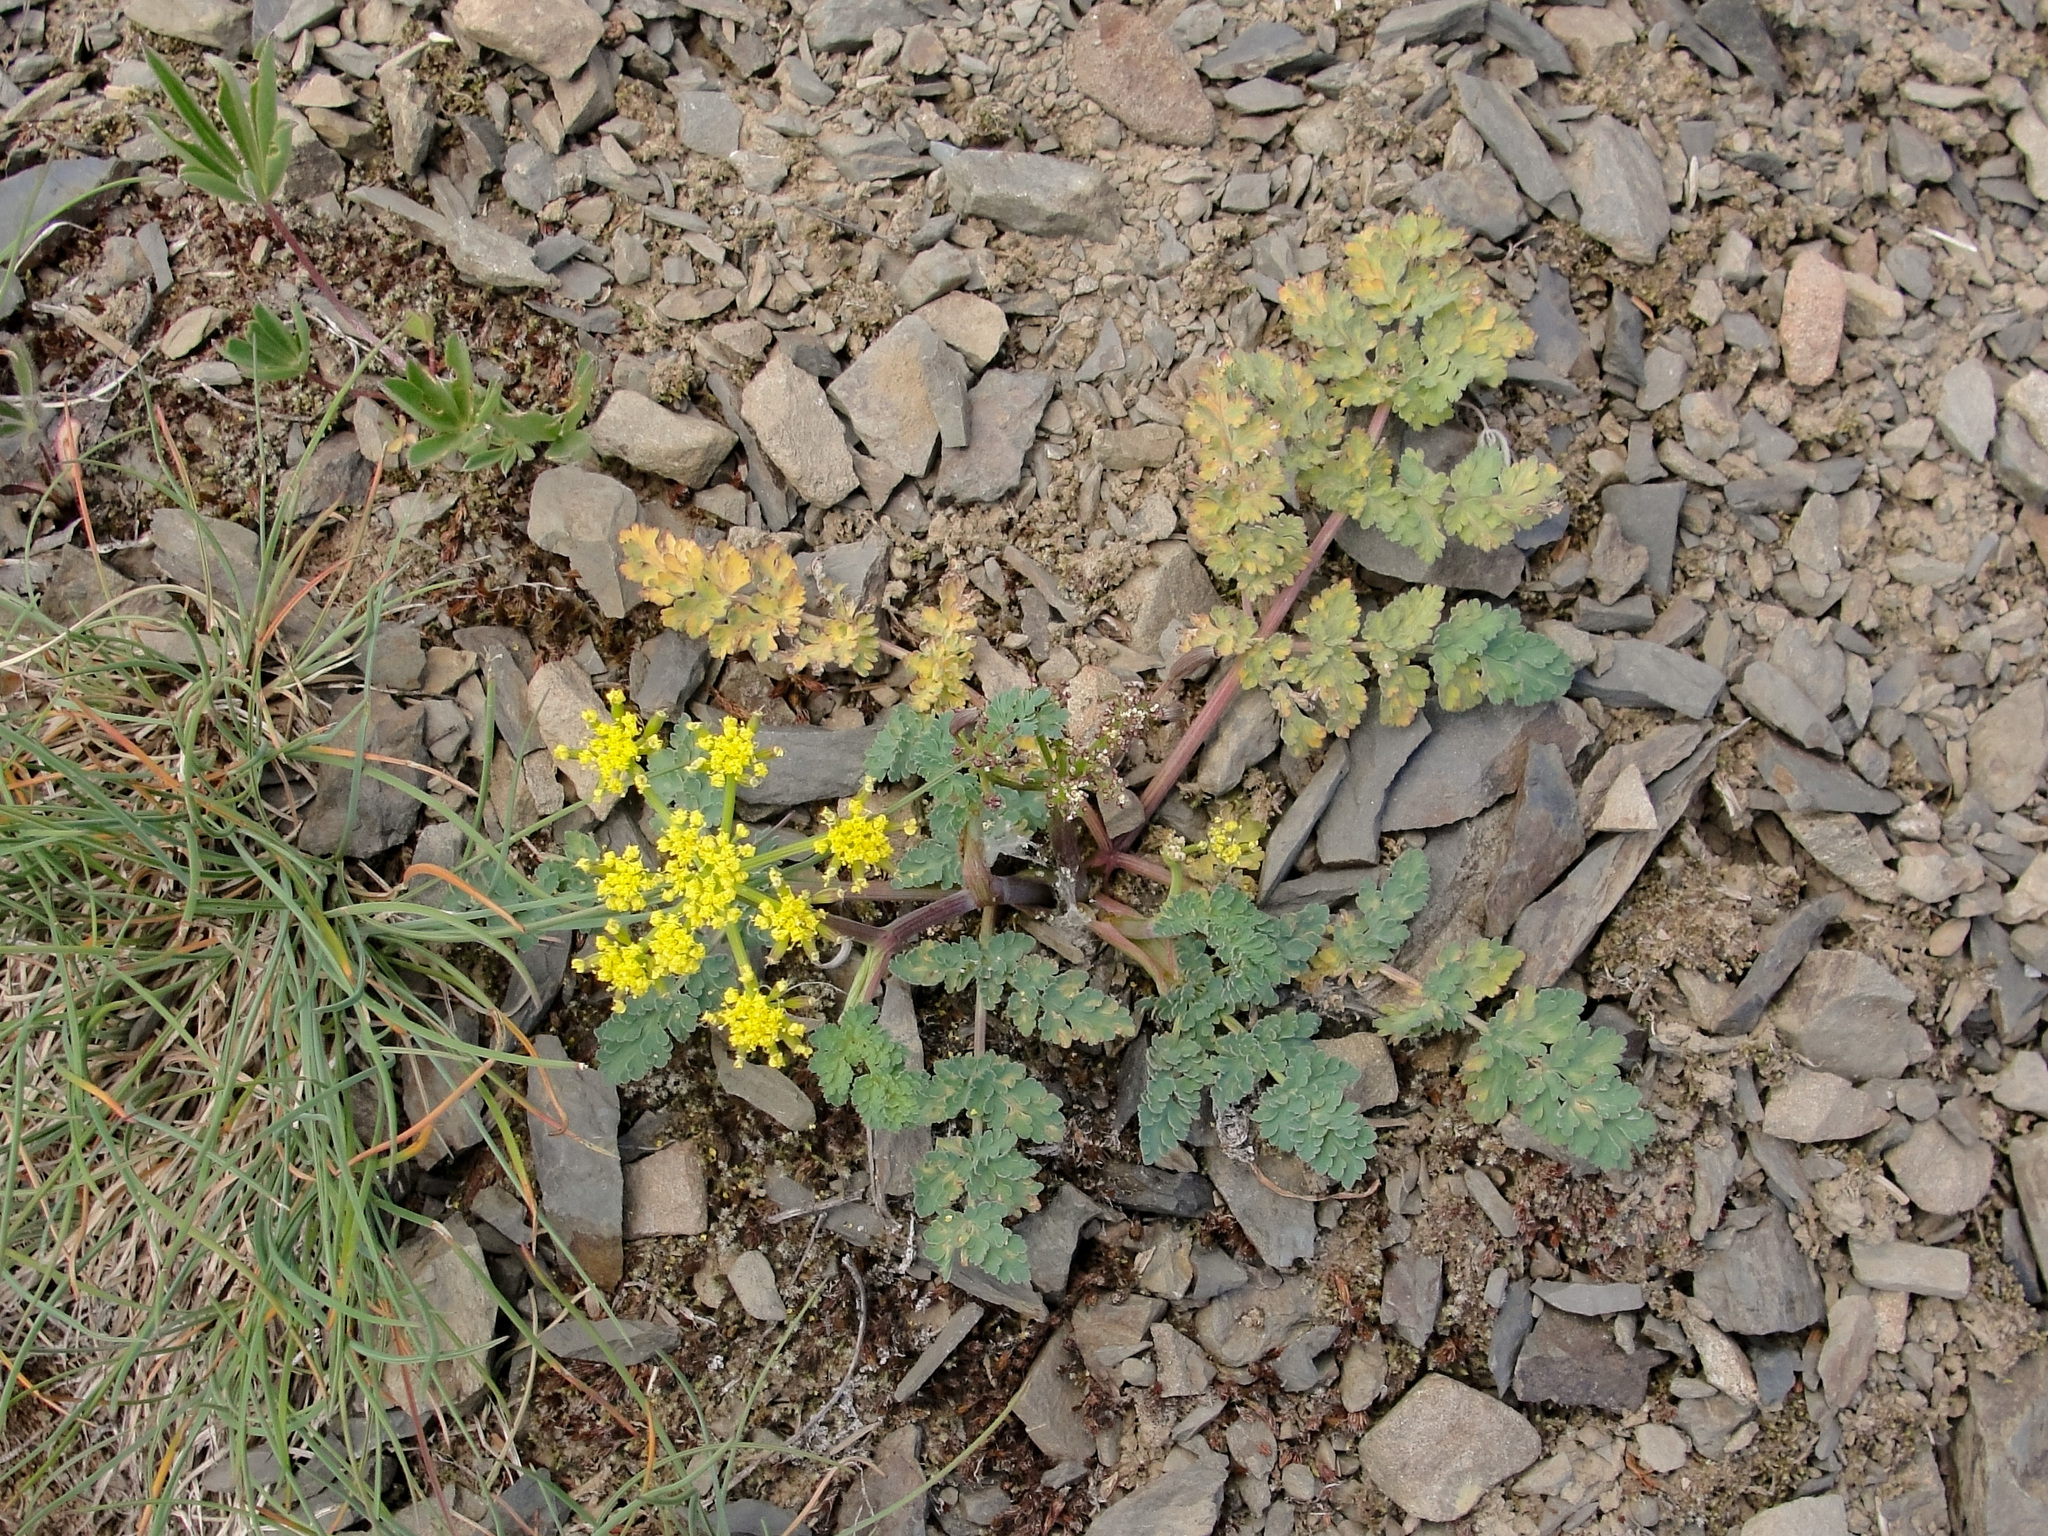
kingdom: Plantae
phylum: Tracheophyta
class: Magnoliopsida
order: Apiales
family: Apiaceae
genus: Lomatium
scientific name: Lomatium martindalei
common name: Cascade desert-parsley
